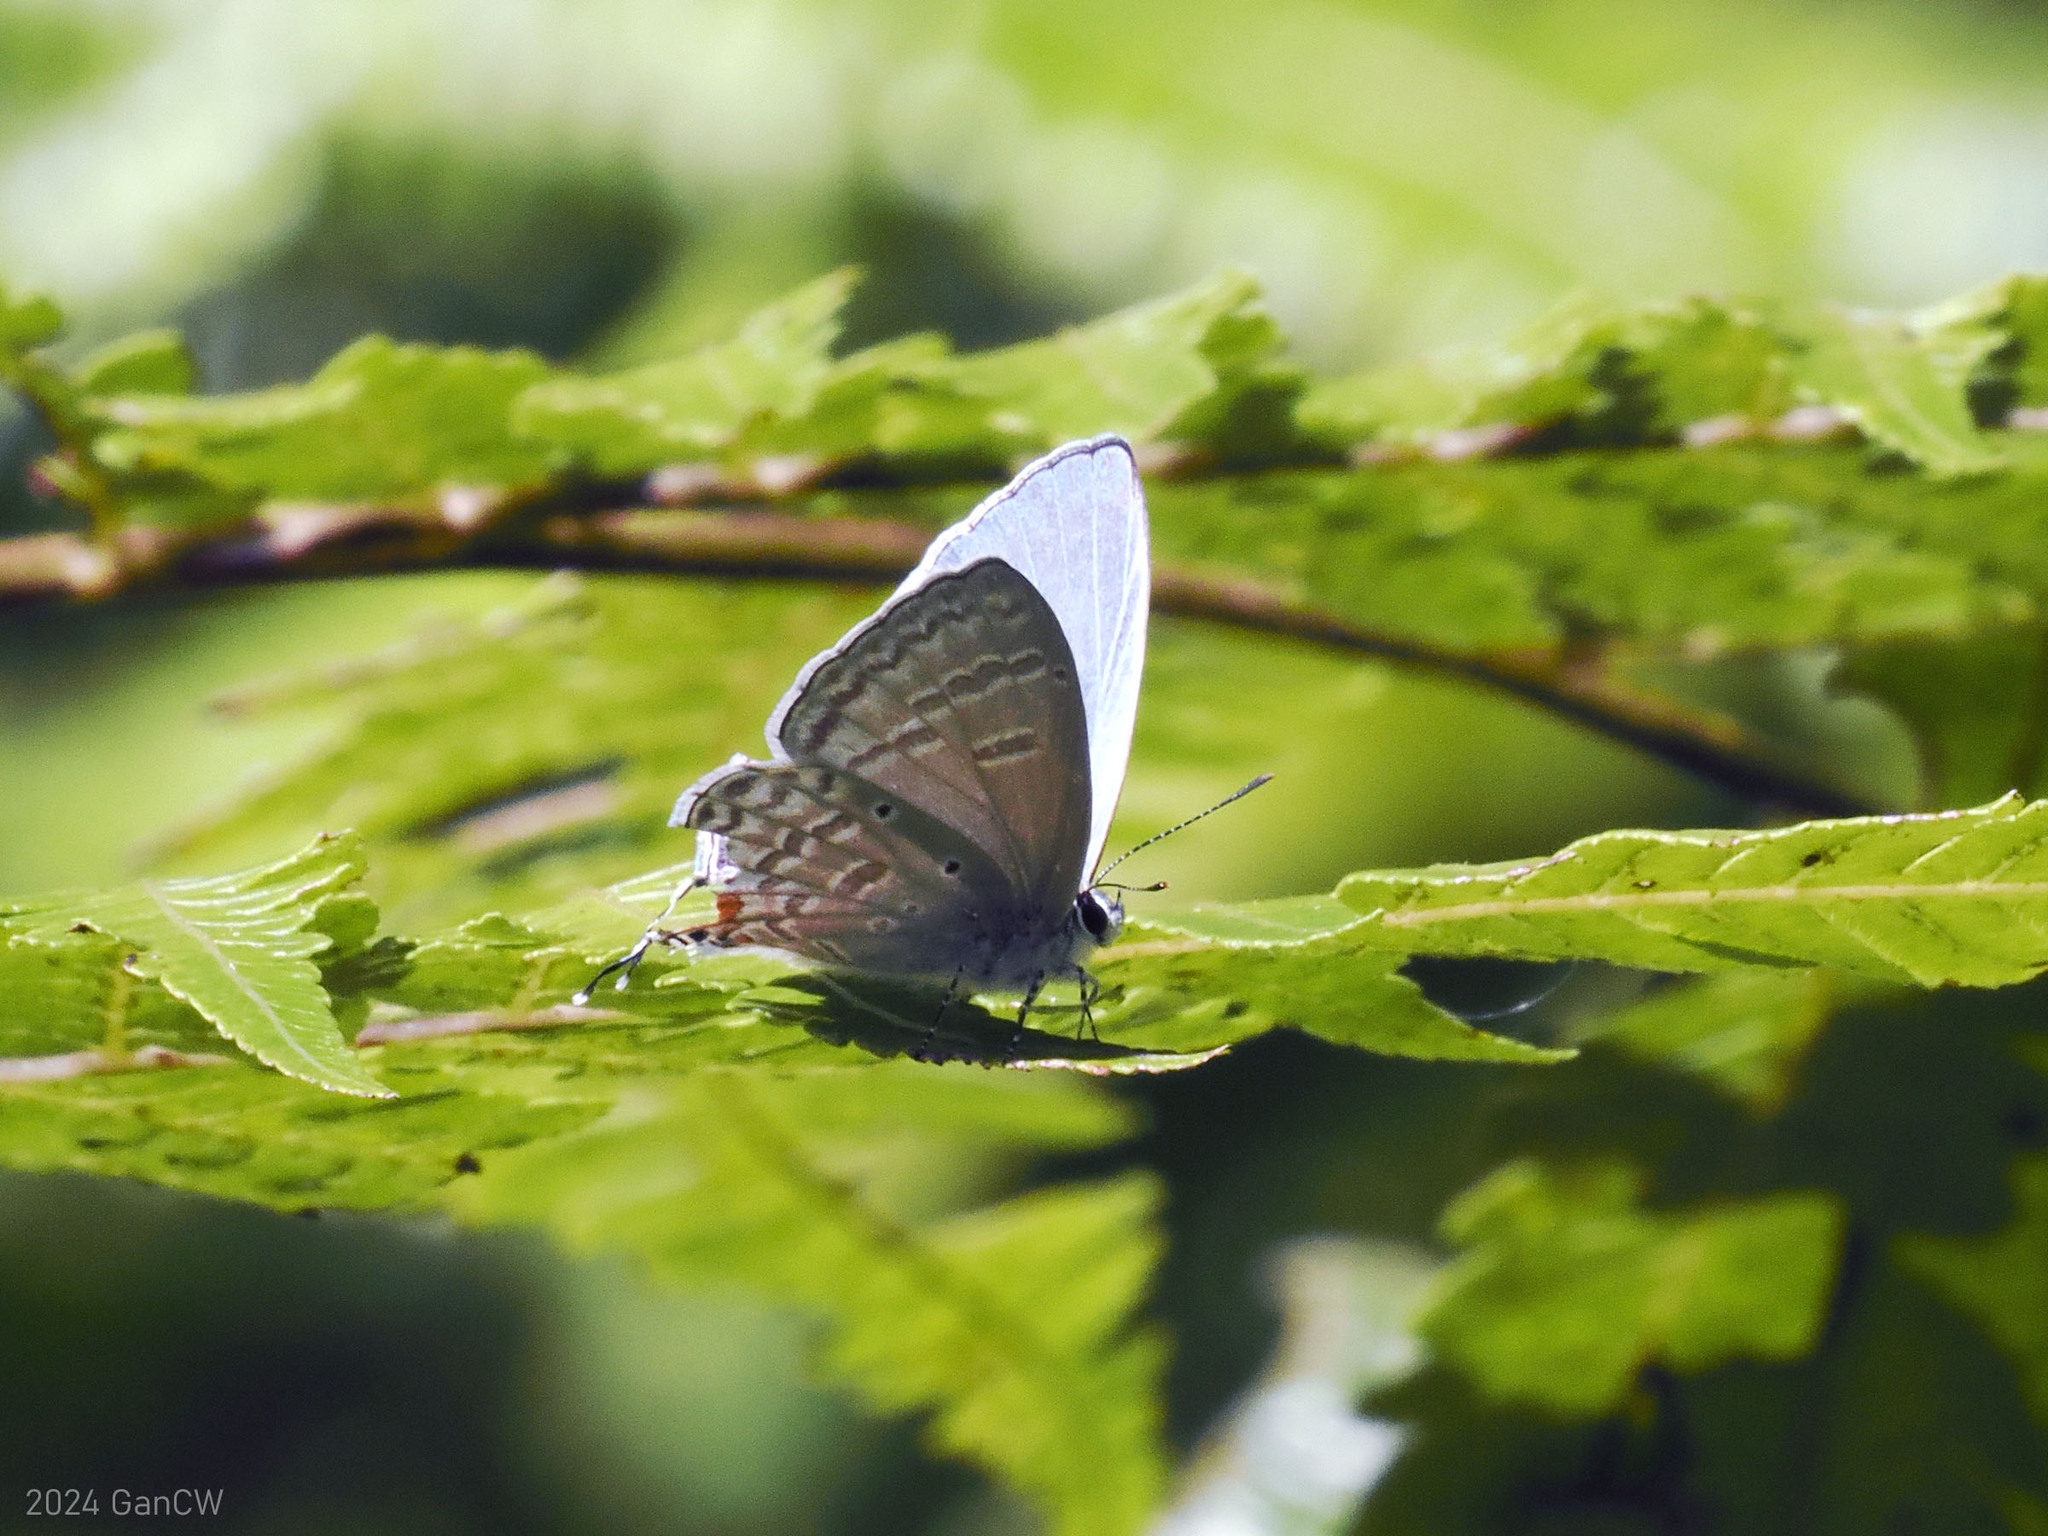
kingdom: Animalia
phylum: Arthropoda
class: Insecta
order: Lepidoptera
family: Lycaenidae
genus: Catochrysops
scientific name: Catochrysops panormus
